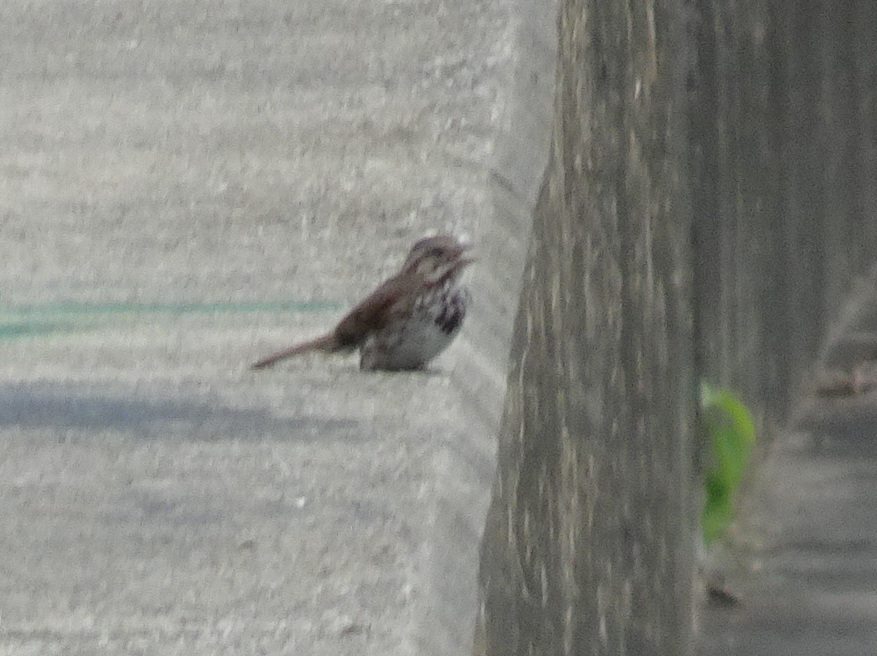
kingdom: Animalia
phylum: Chordata
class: Aves
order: Passeriformes
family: Passerellidae
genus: Melospiza
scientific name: Melospiza melodia
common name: Song sparrow
